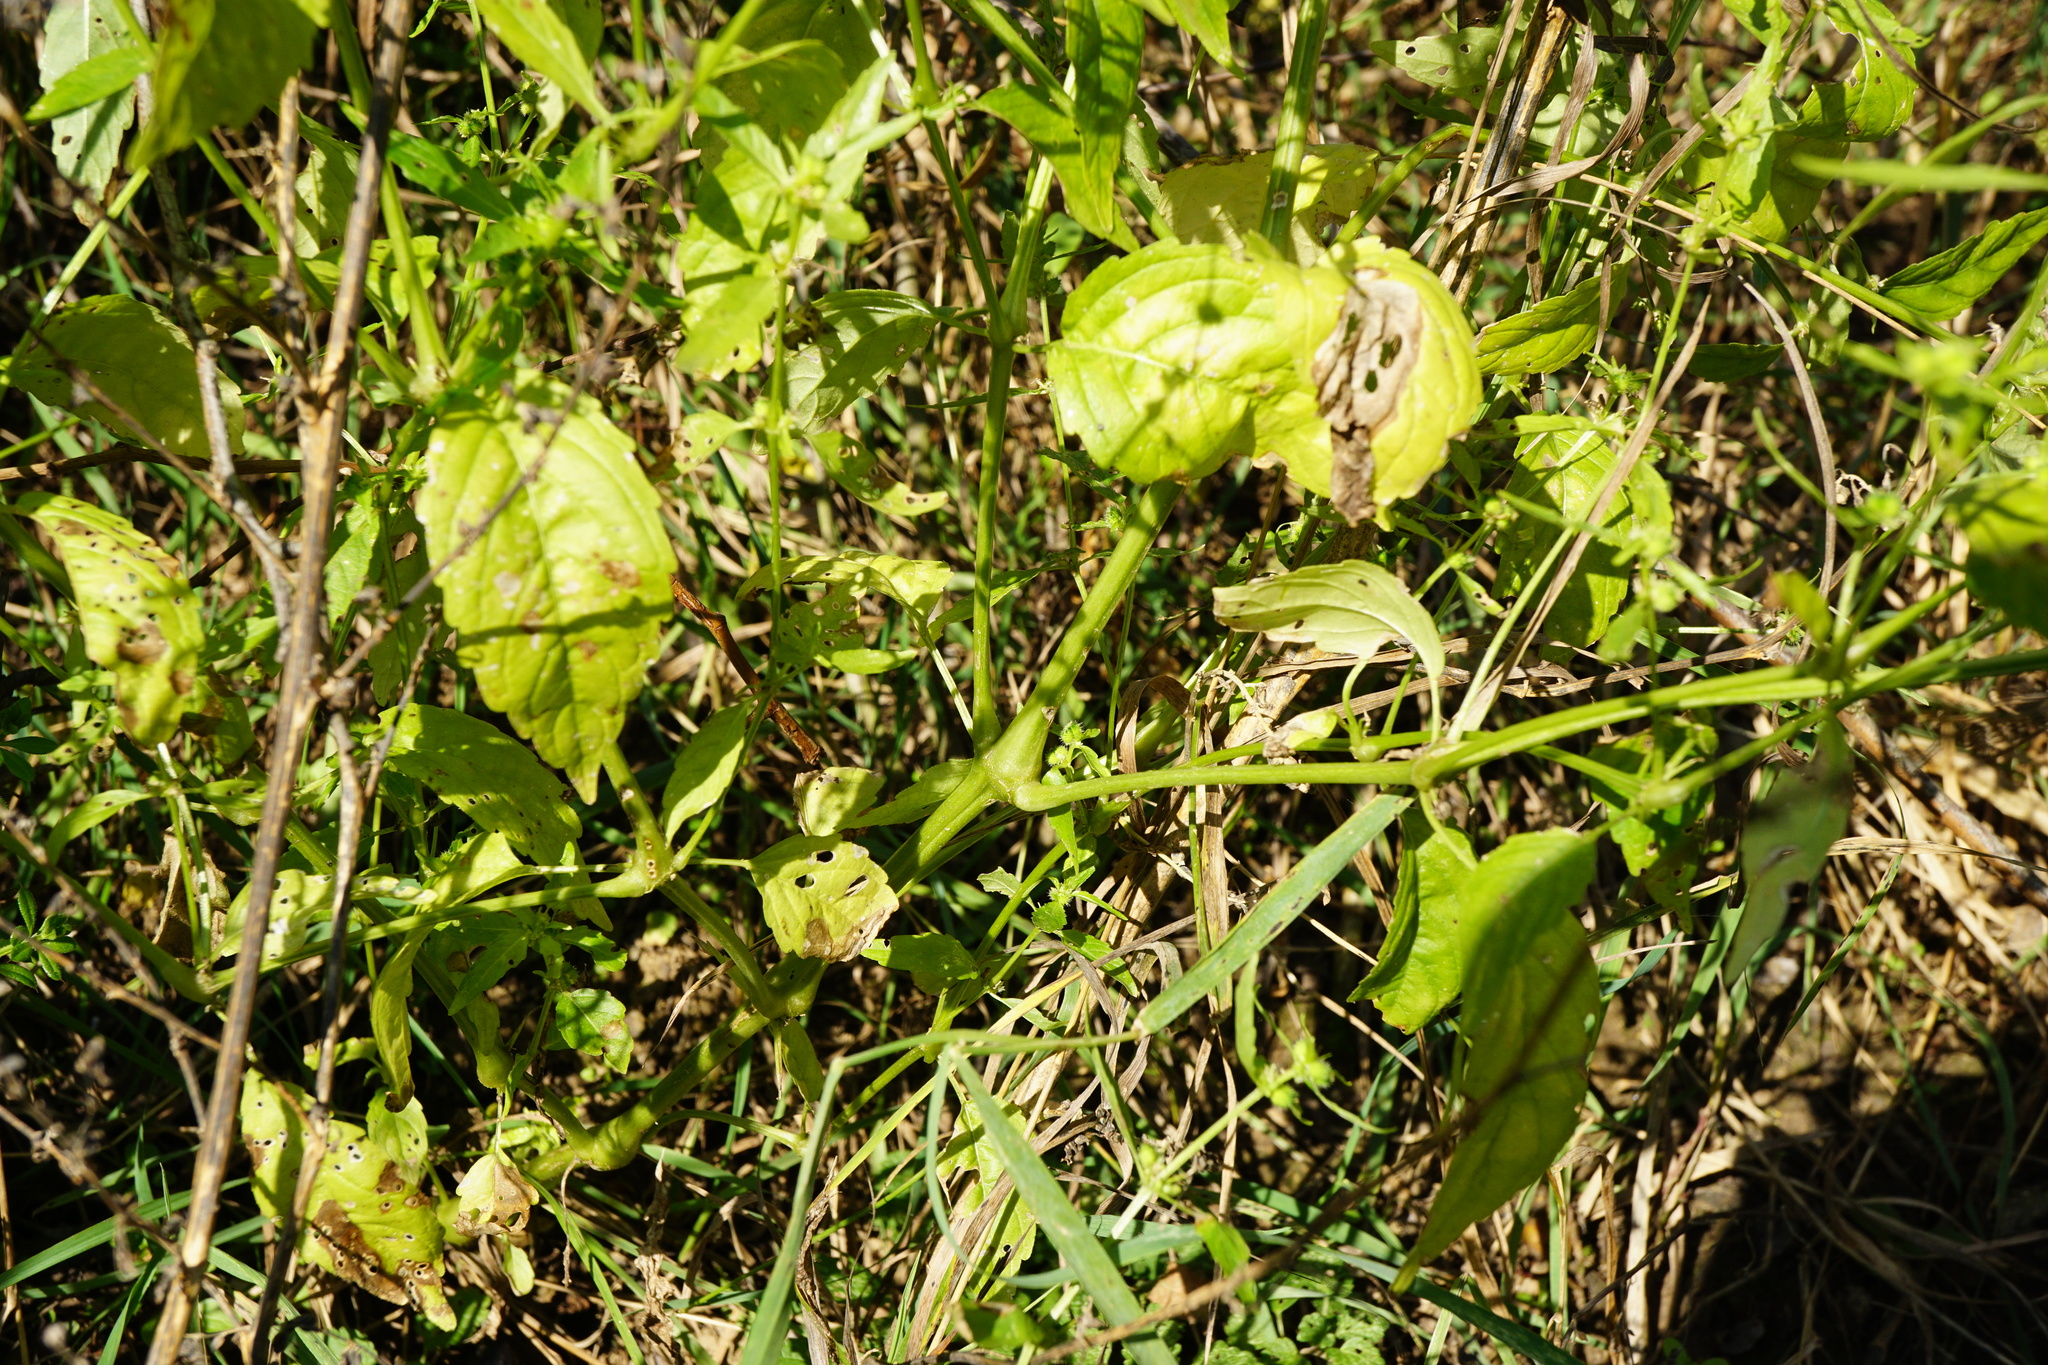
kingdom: Plantae
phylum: Tracheophyta
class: Magnoliopsida
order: Malpighiales
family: Euphorbiaceae
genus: Mercurialis
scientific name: Mercurialis annua
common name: Annual mercury
